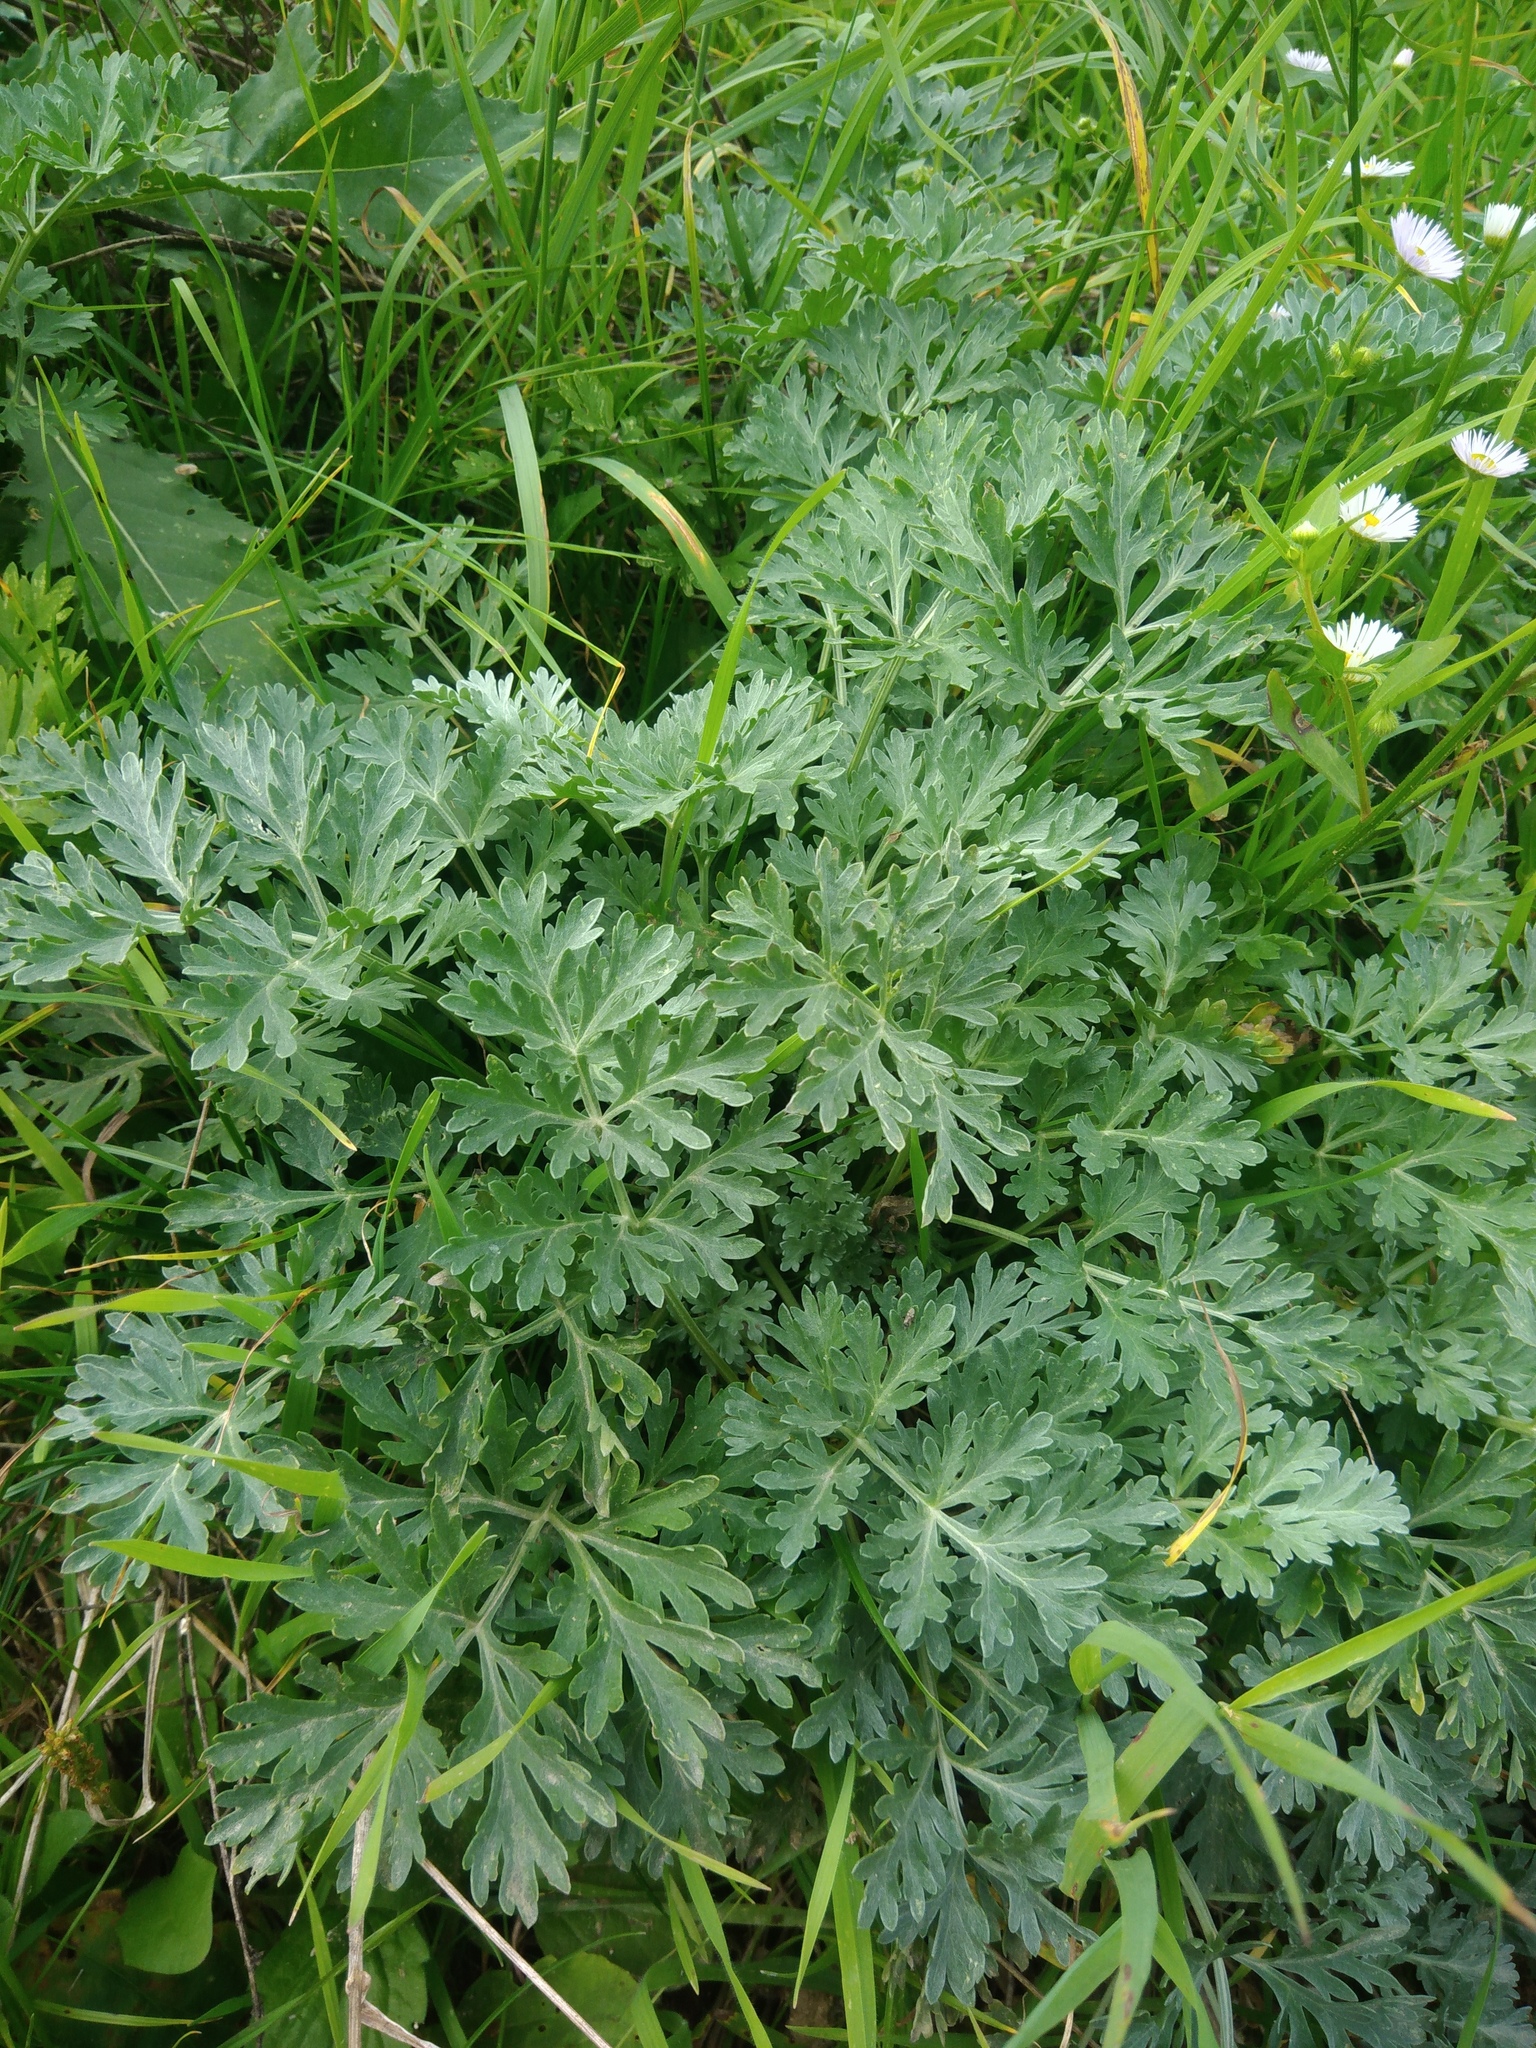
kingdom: Plantae
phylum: Tracheophyta
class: Magnoliopsida
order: Asterales
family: Asteraceae
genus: Artemisia
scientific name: Artemisia absinthium
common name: Wormwood
